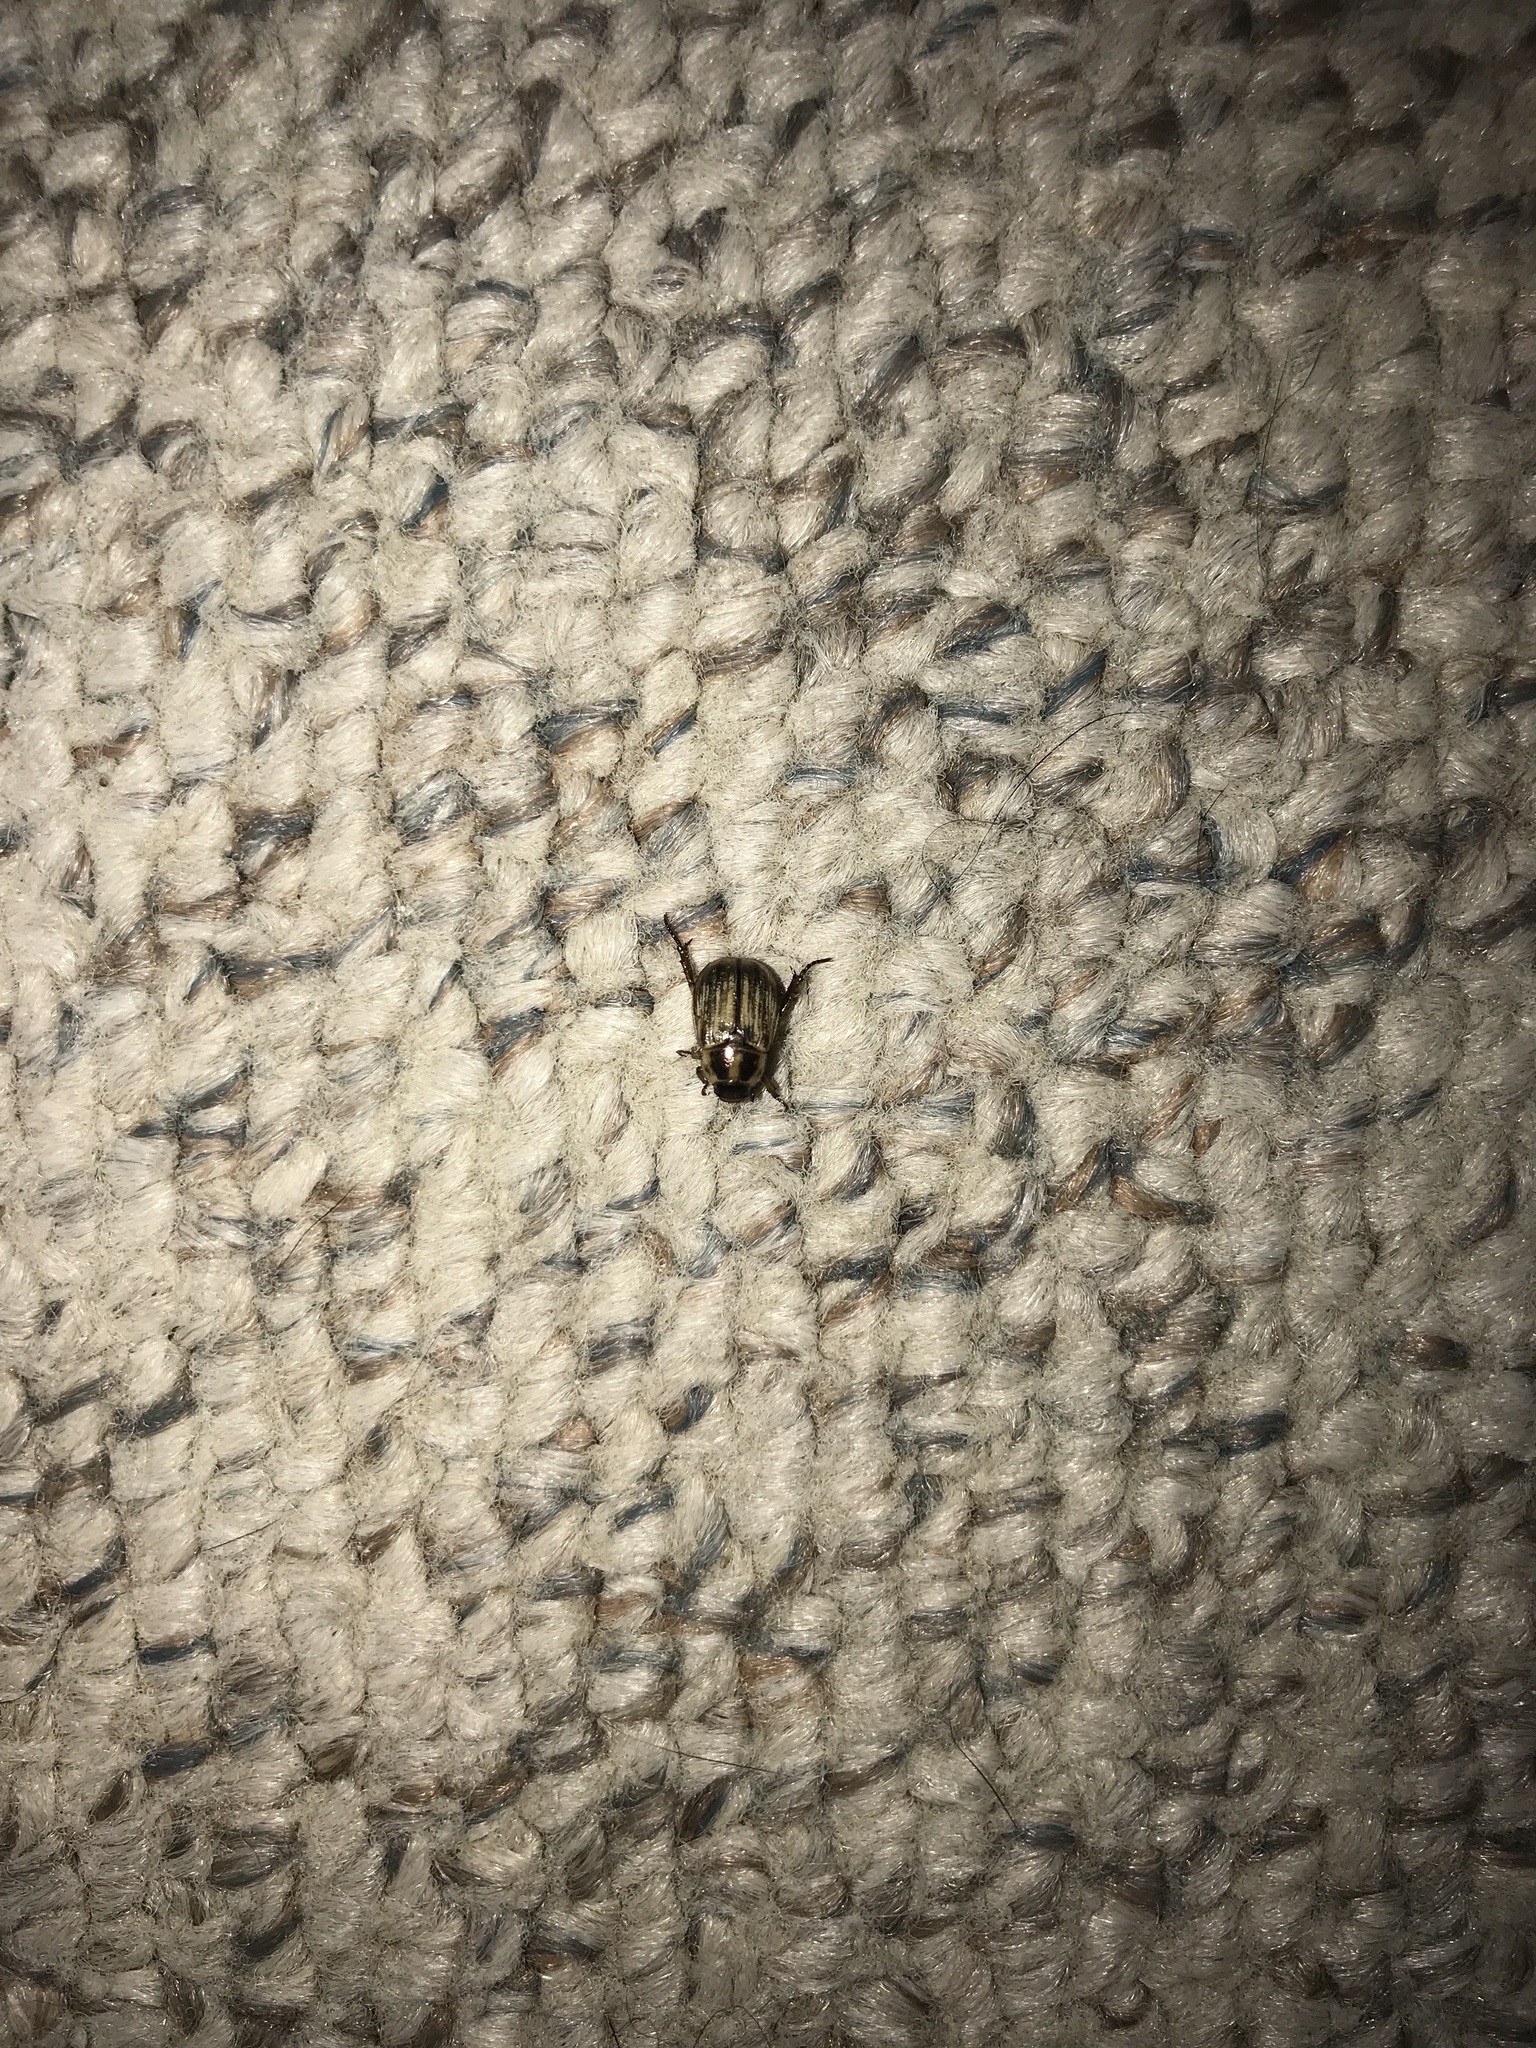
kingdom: Animalia
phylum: Arthropoda
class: Insecta
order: Coleoptera
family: Scarabaeidae
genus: Exomala
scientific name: Exomala orientalis
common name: Oriental beetle
